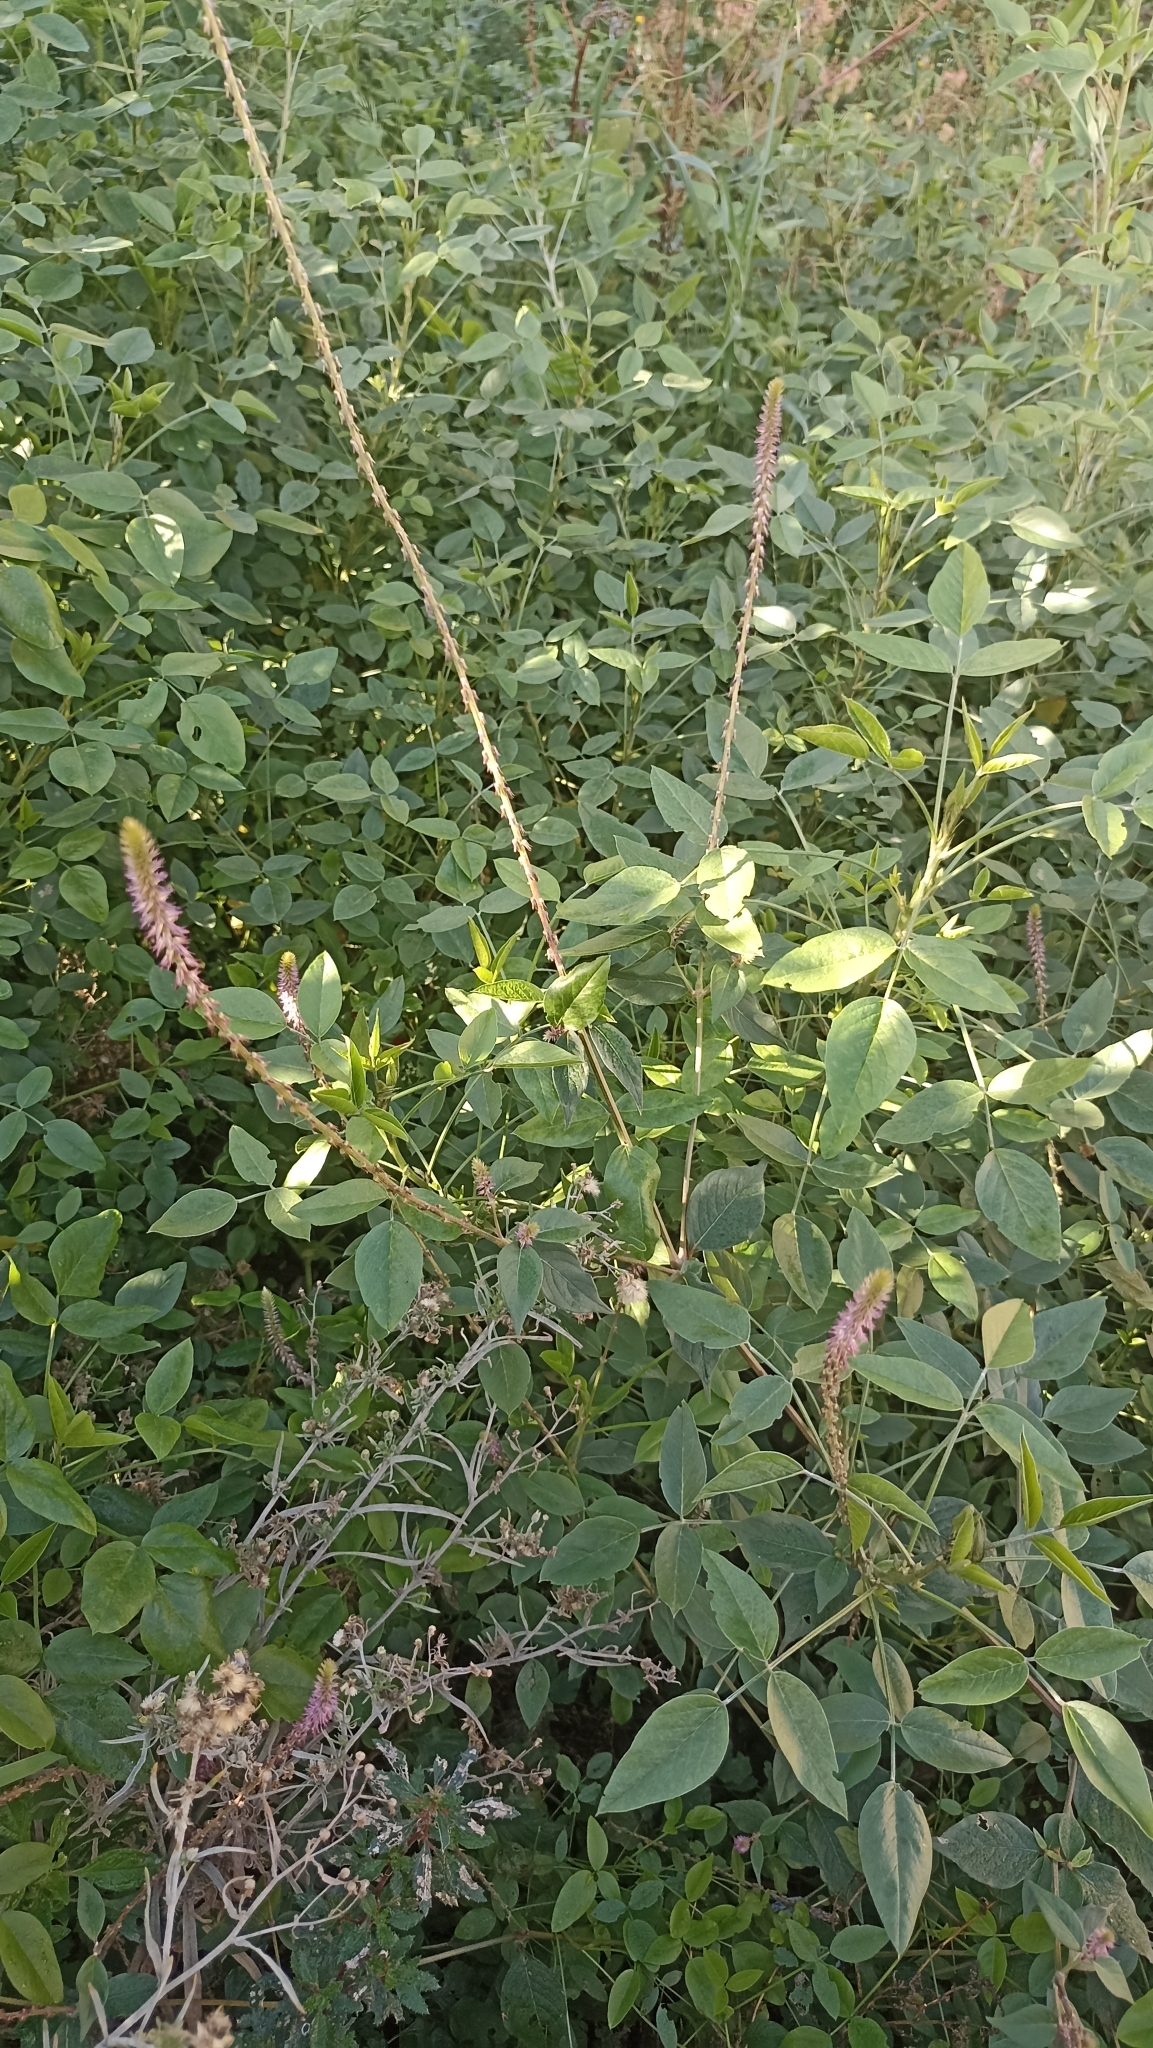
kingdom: Plantae
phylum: Tracheophyta
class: Magnoliopsida
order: Caryophyllales
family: Amaranthaceae
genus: Achyranthes
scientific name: Achyranthes aspera
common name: Devil's horsewhip
